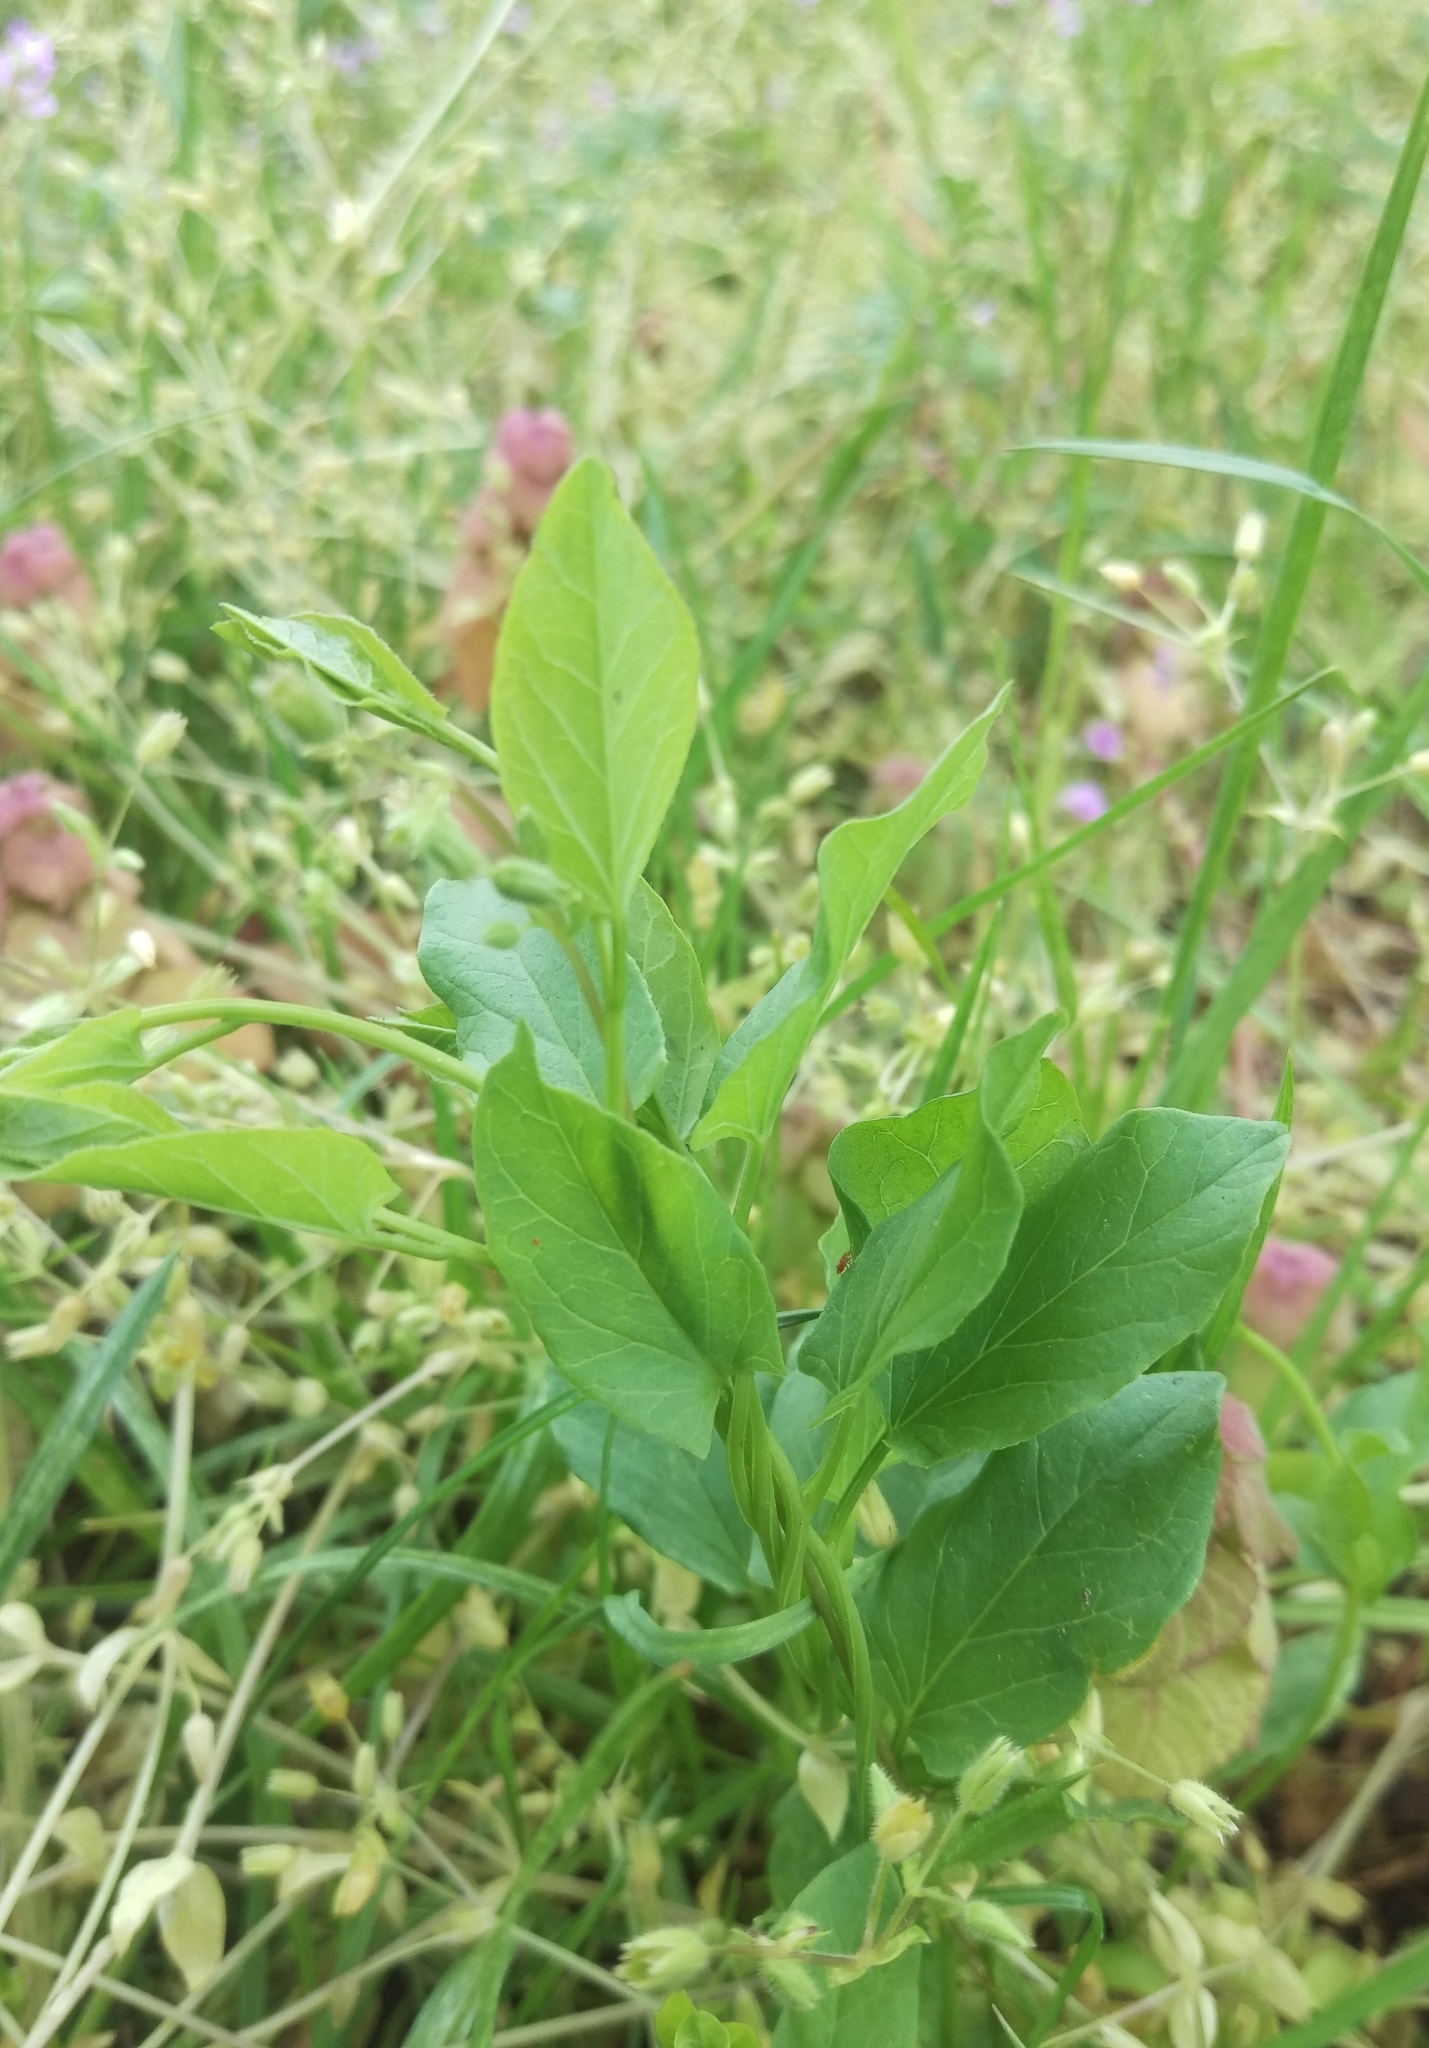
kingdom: Plantae
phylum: Tracheophyta
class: Magnoliopsida
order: Solanales
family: Convolvulaceae
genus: Convolvulus
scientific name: Convolvulus arvensis
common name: Field bindweed
